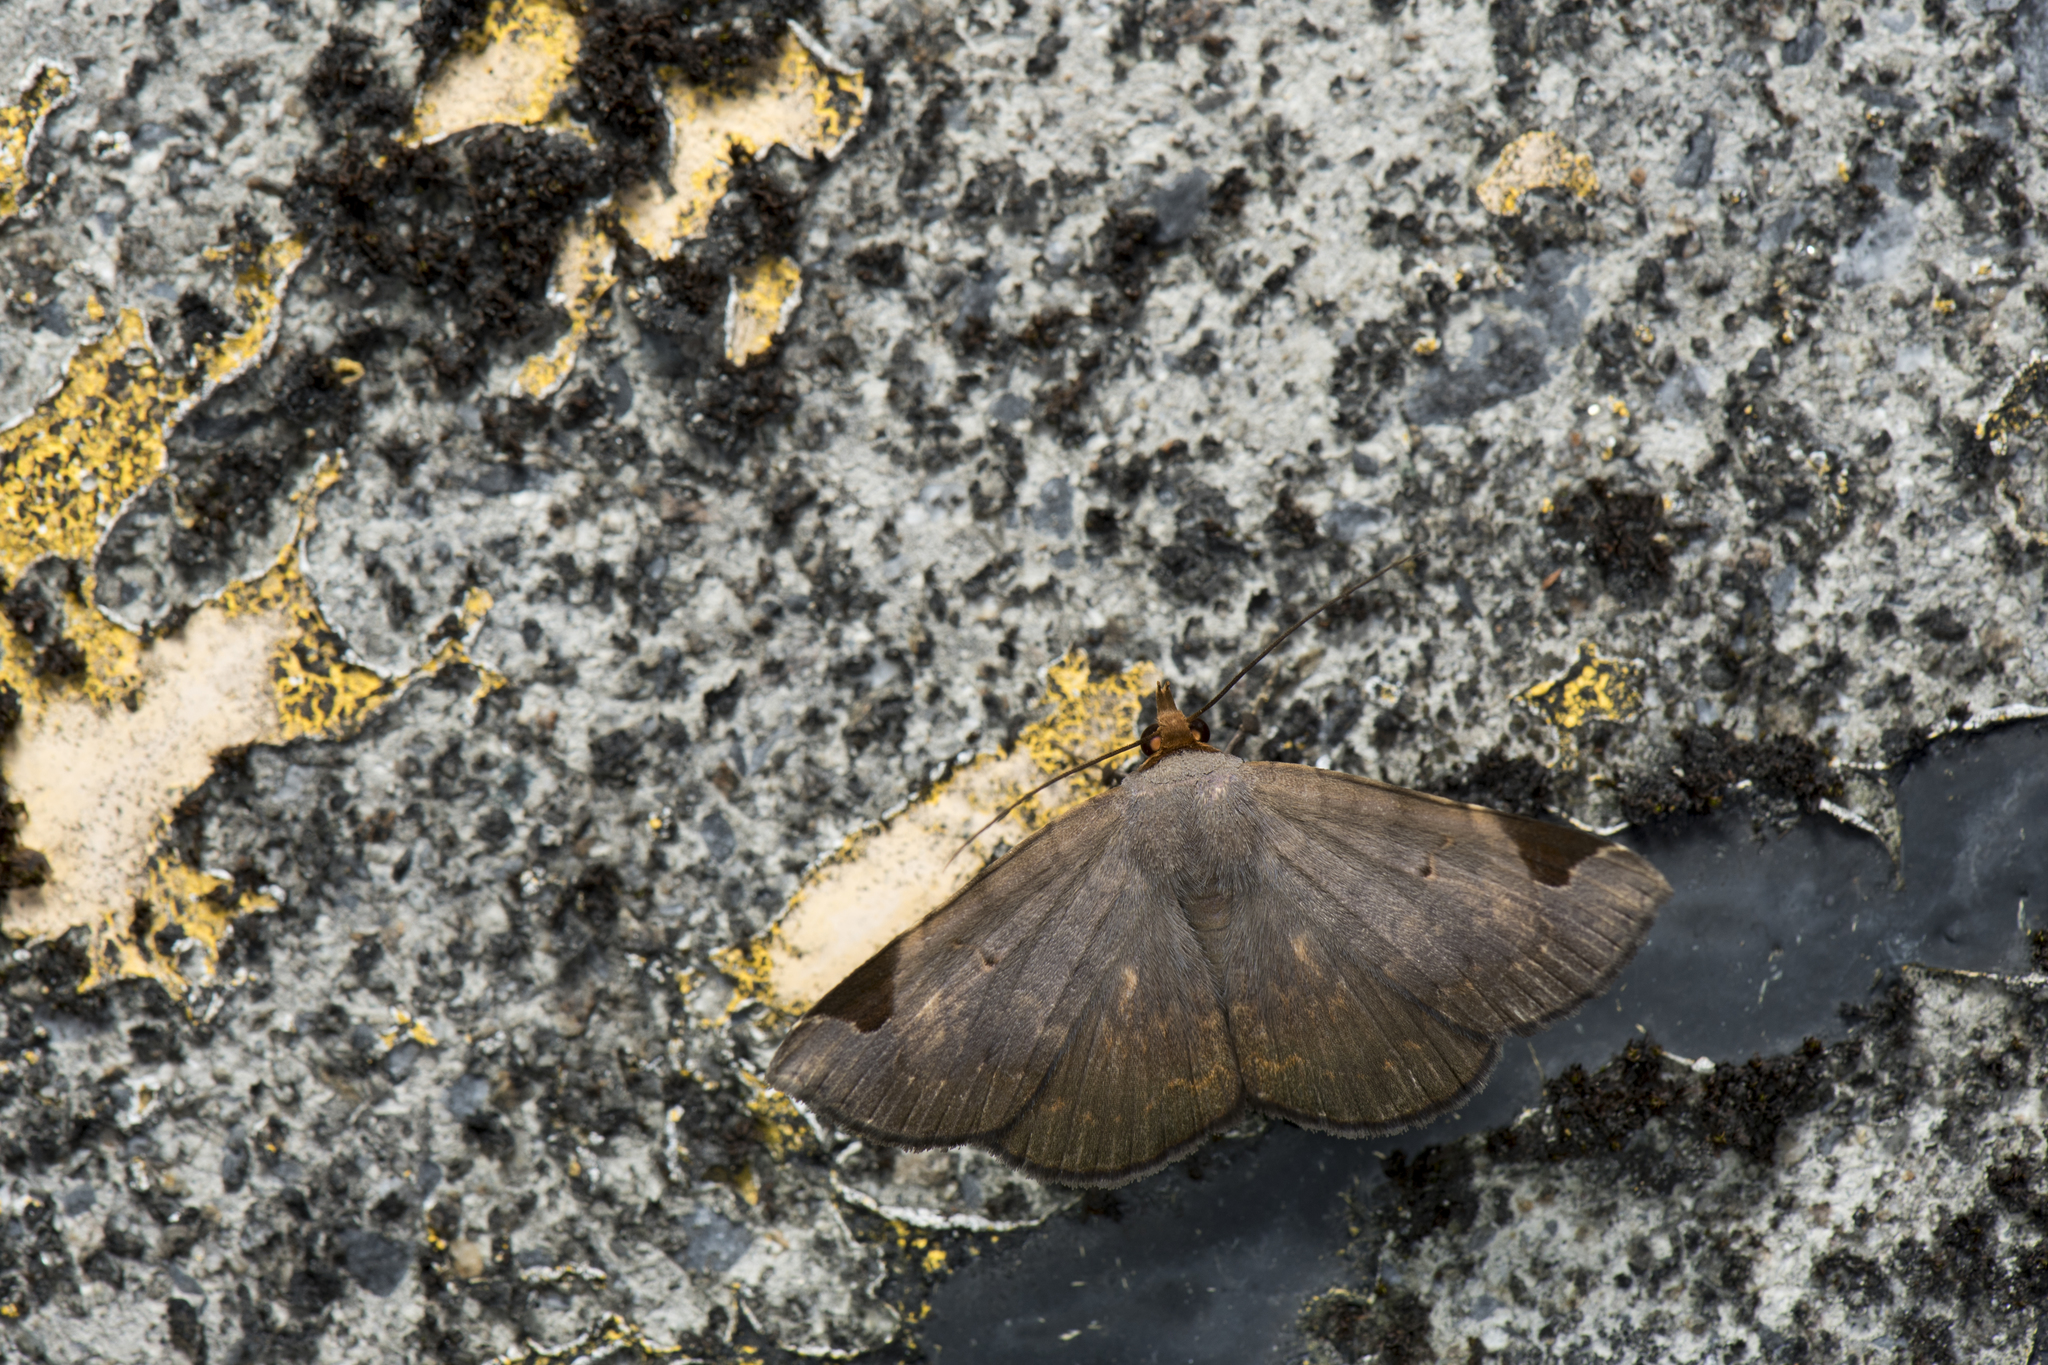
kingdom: Animalia
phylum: Arthropoda
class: Insecta
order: Lepidoptera
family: Erebidae
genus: Mecodina
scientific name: Mecodina praecipua
